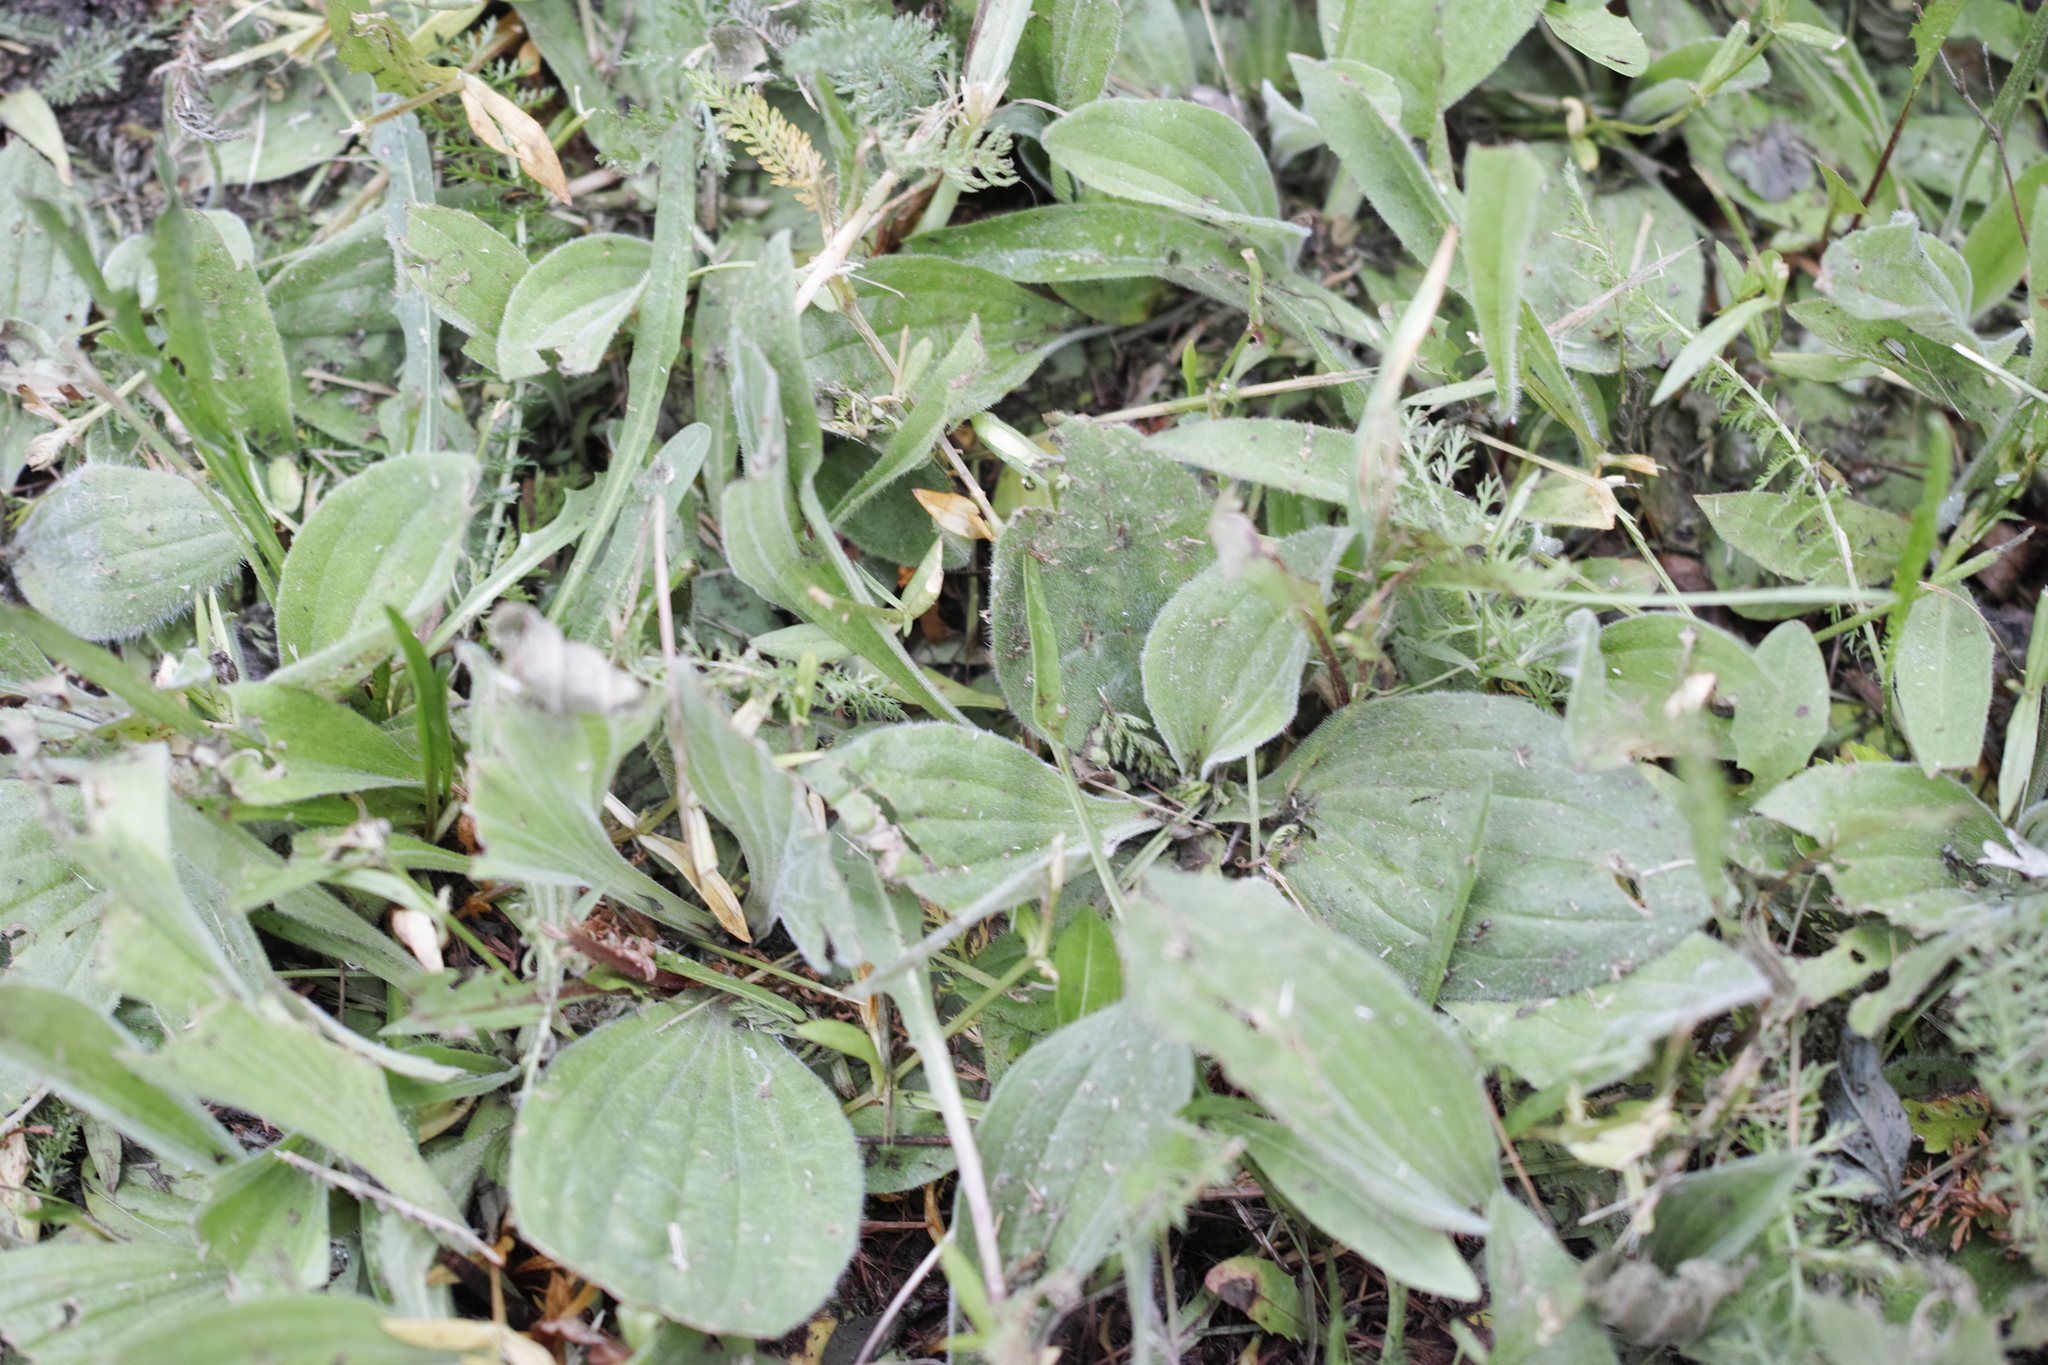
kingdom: Plantae
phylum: Tracheophyta
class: Magnoliopsida
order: Lamiales
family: Plantaginaceae
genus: Plantago
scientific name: Plantago media
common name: Hoary plantain
